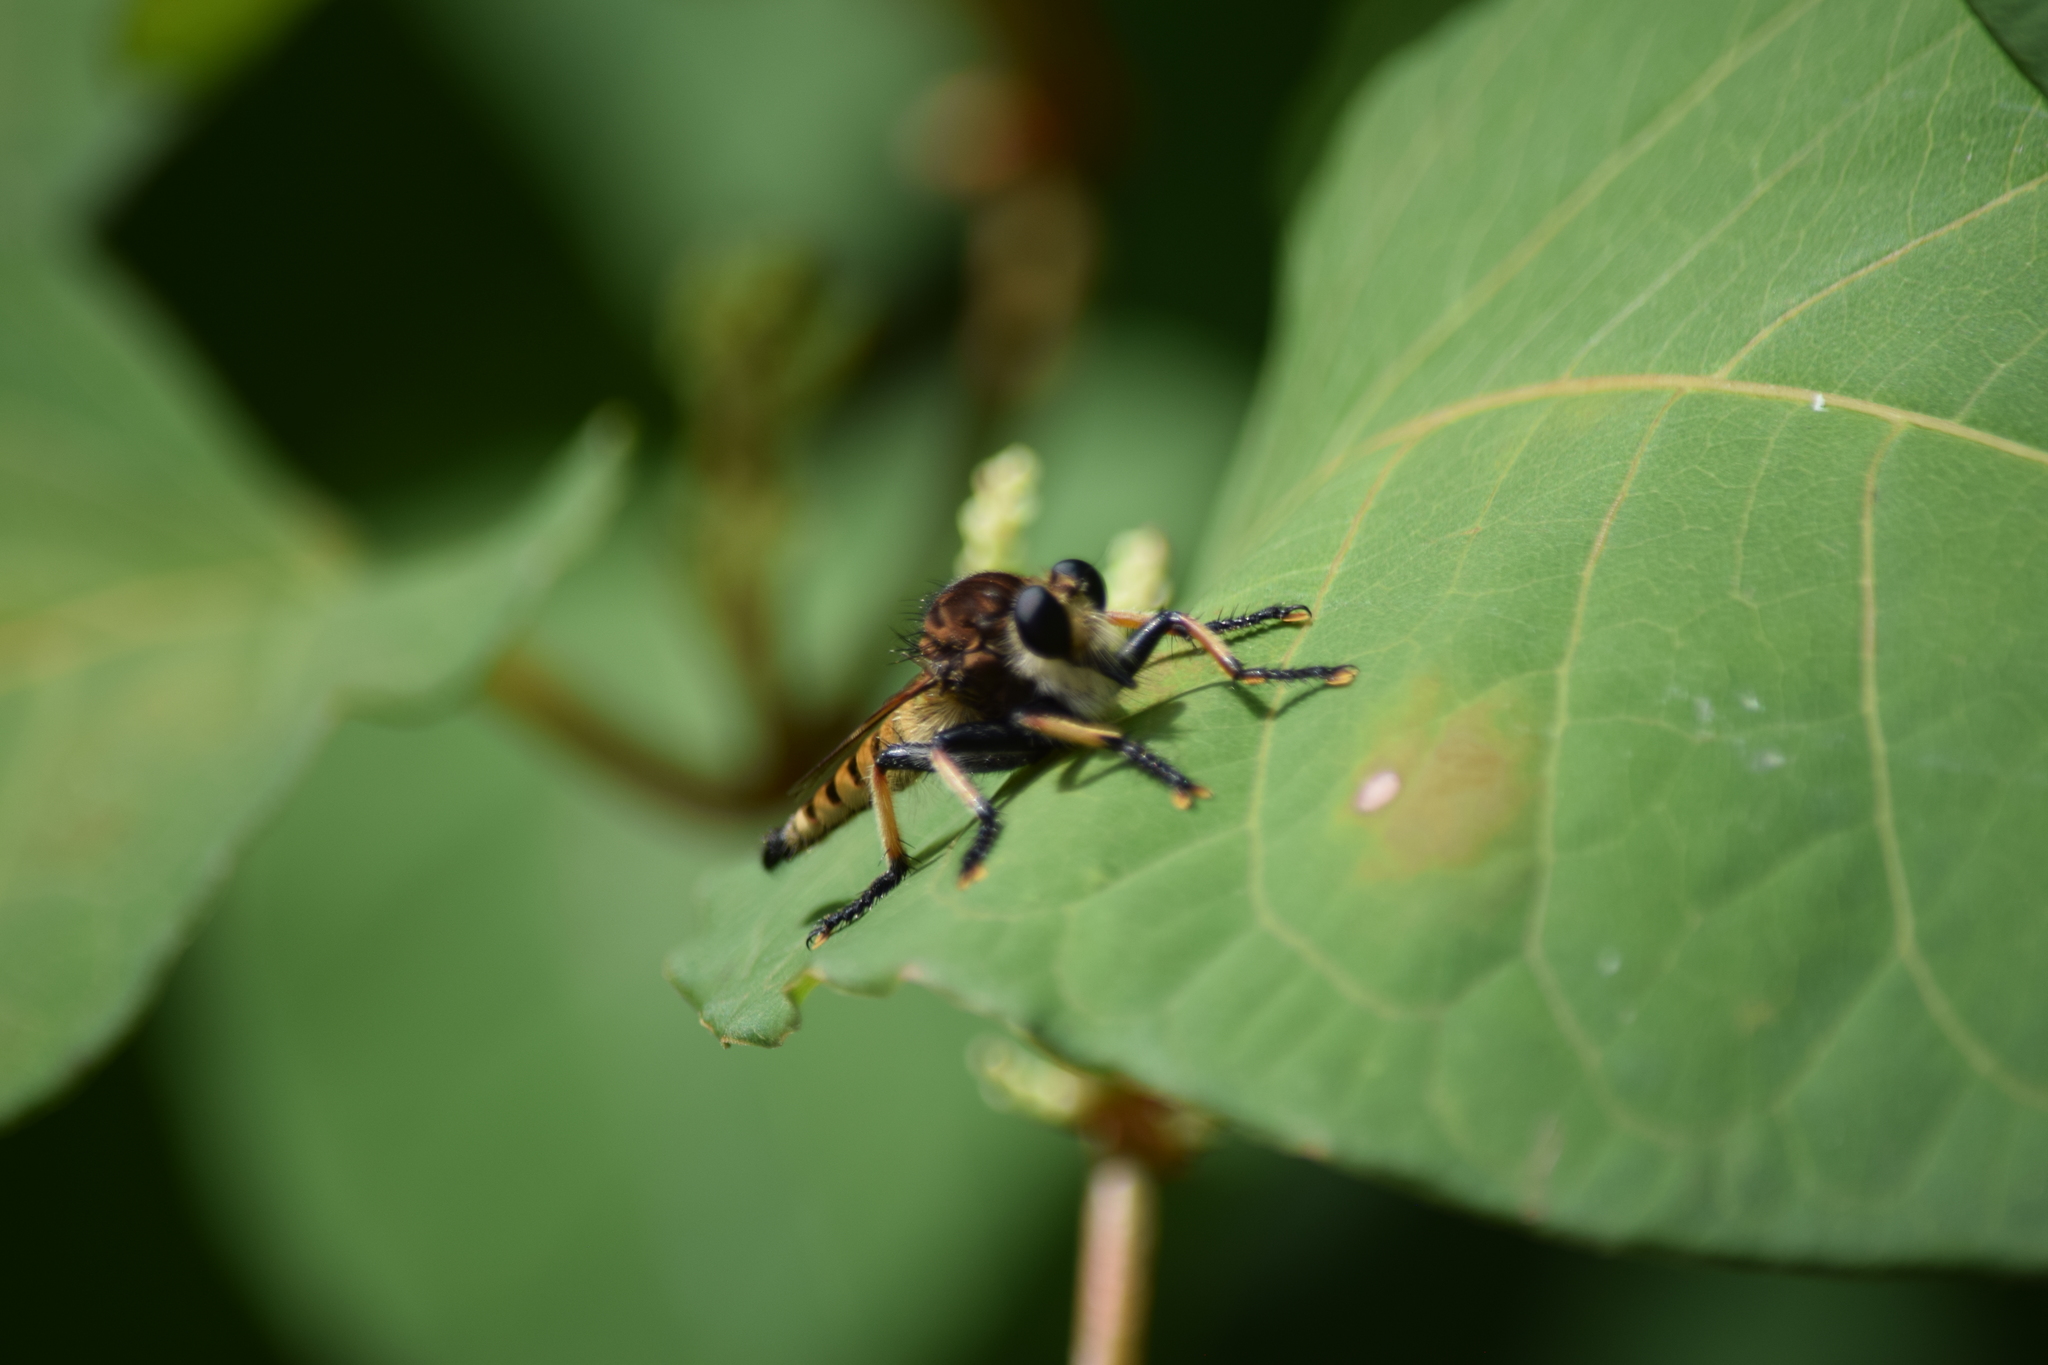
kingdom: Animalia
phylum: Arthropoda
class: Insecta
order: Diptera
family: Asilidae
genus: Promachus
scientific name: Promachus rufipes
